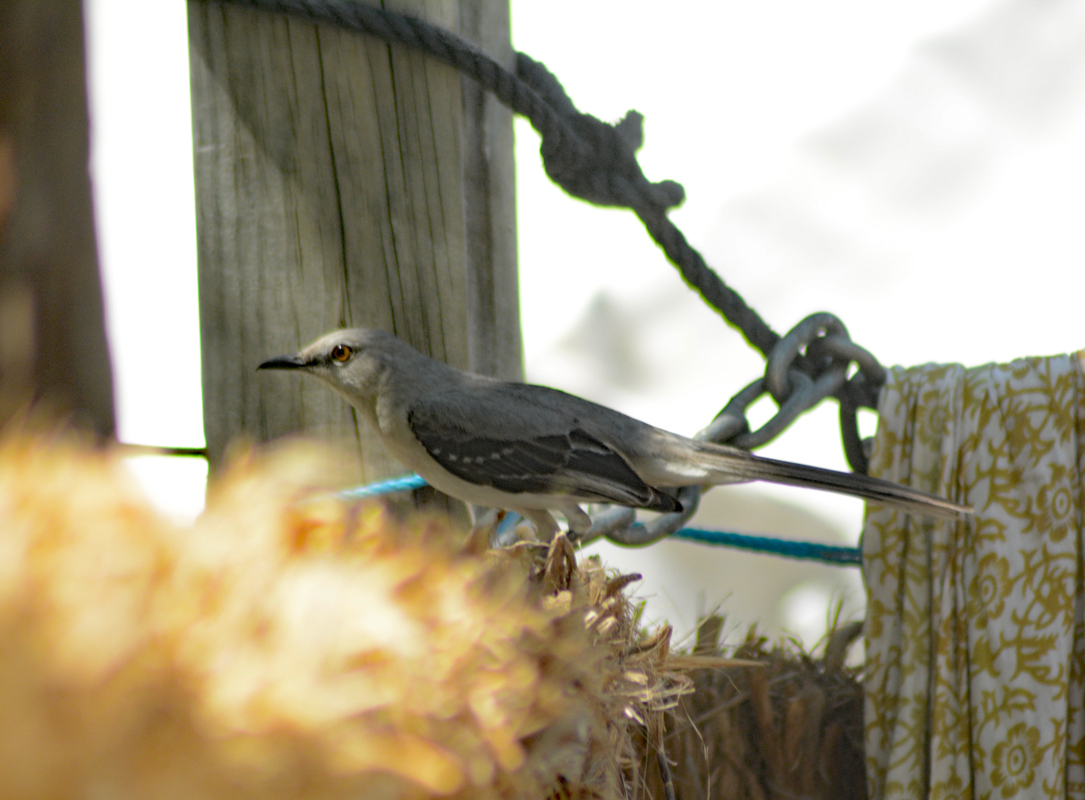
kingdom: Animalia
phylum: Chordata
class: Aves
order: Passeriformes
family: Mimidae
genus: Mimus
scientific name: Mimus gilvus
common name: Tropical mockingbird
